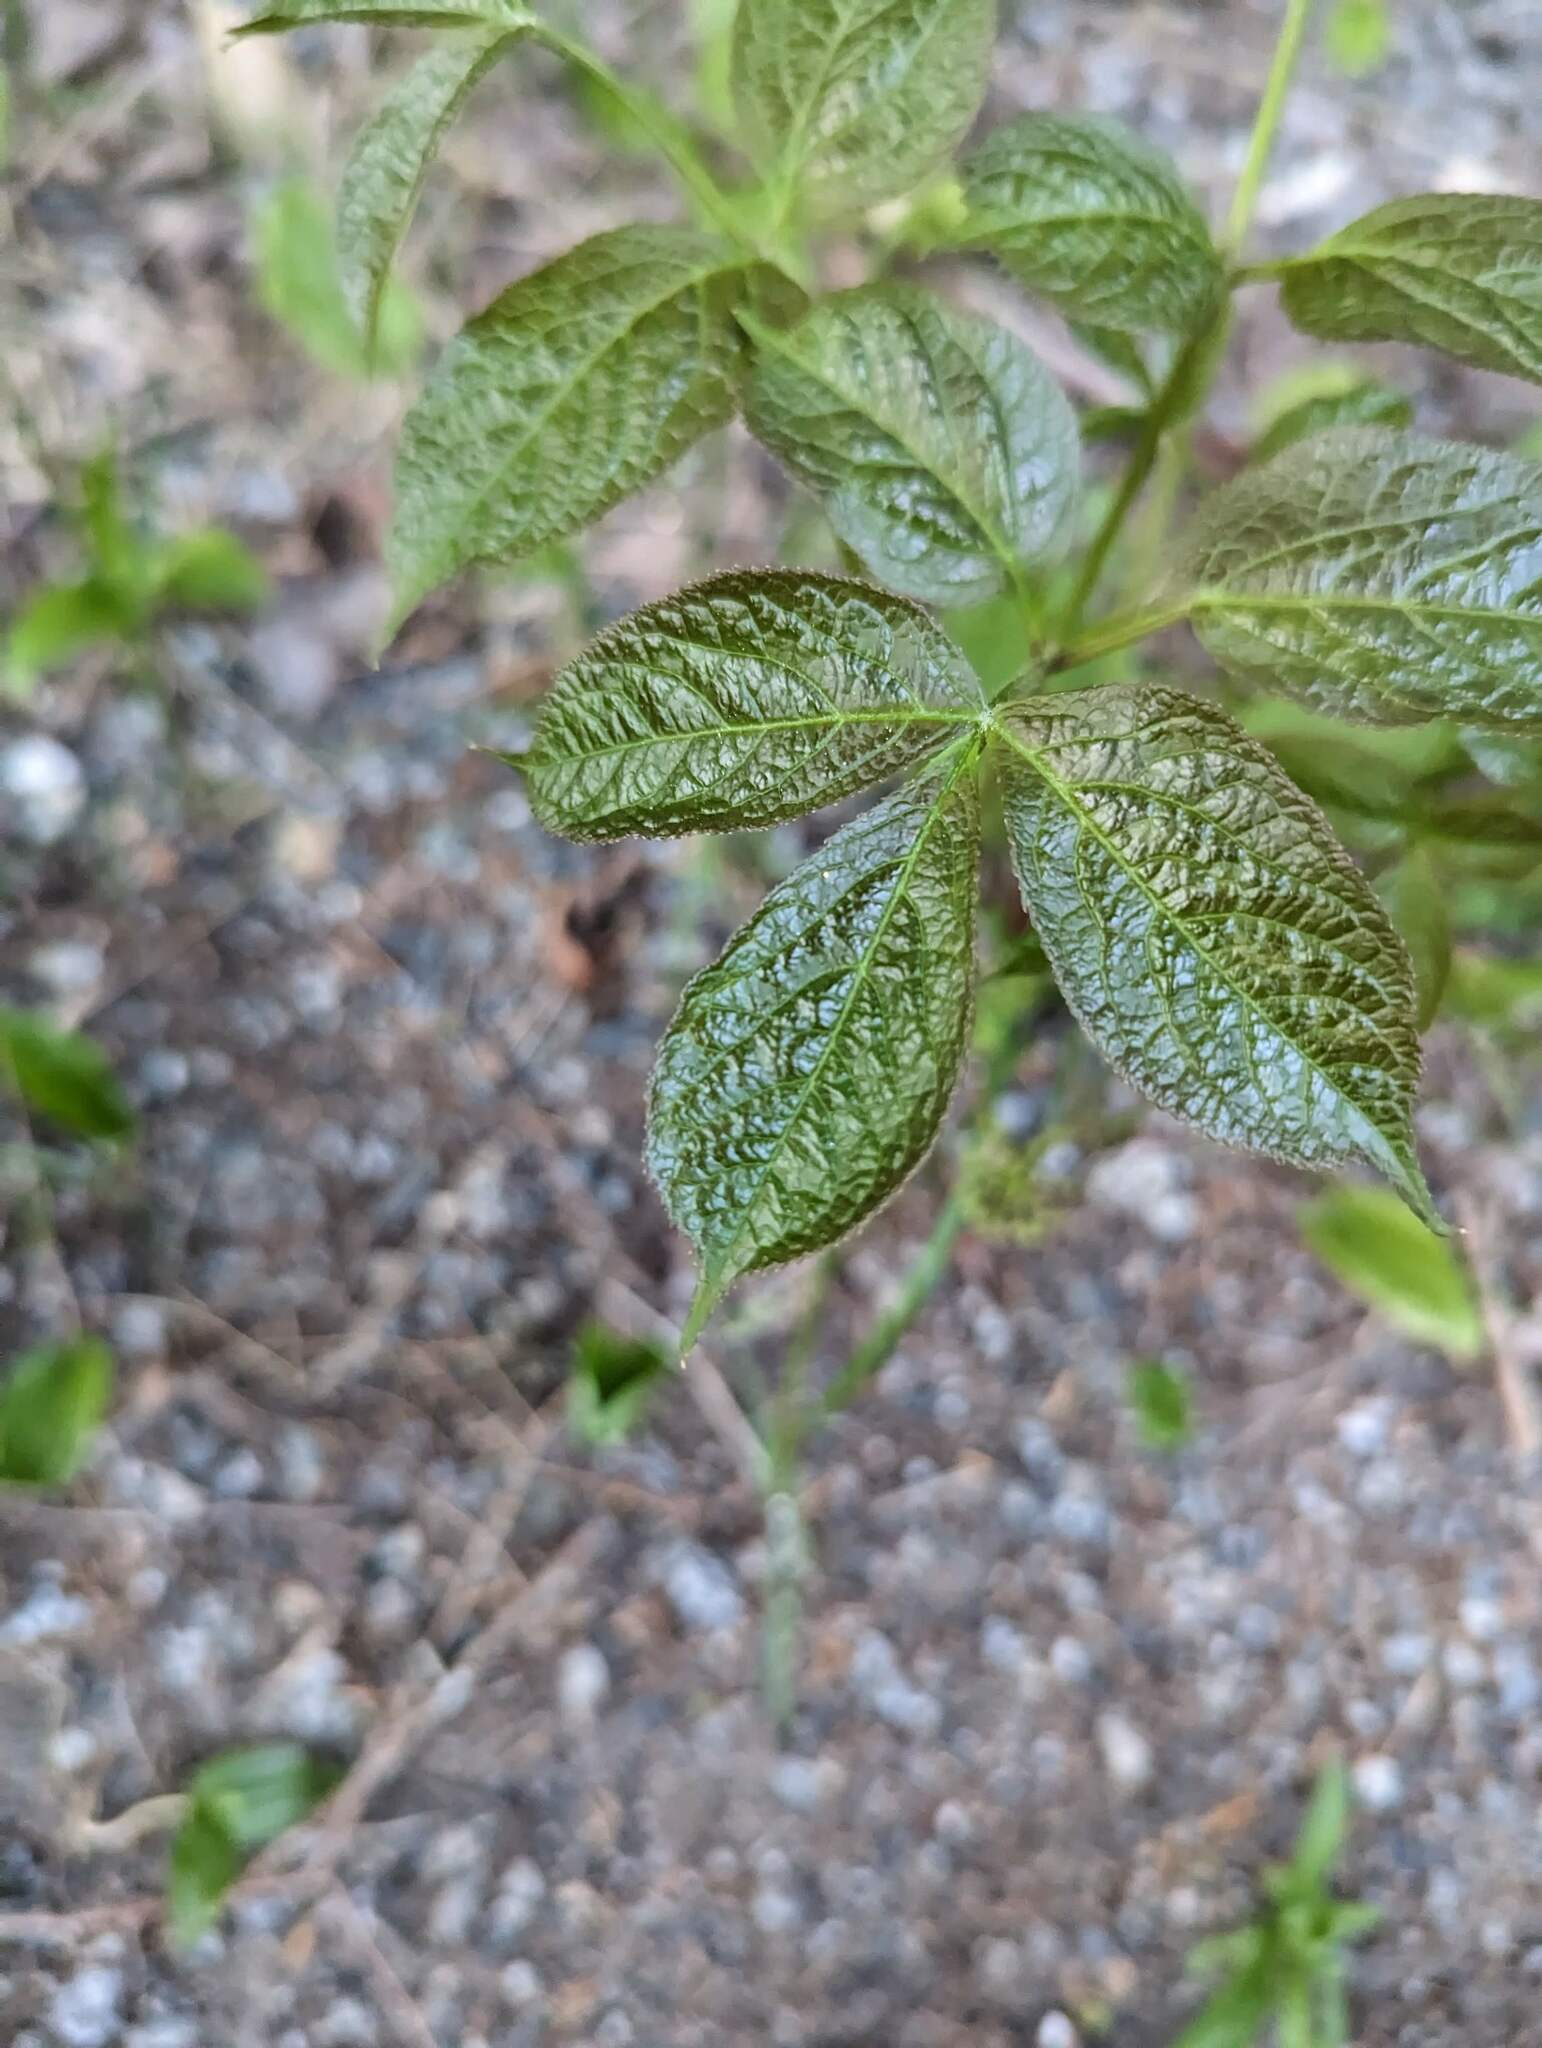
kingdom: Plantae
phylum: Tracheophyta
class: Magnoliopsida
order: Apiales
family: Araliaceae
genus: Aralia
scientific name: Aralia nudicaulis
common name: Wild sarsaparilla
